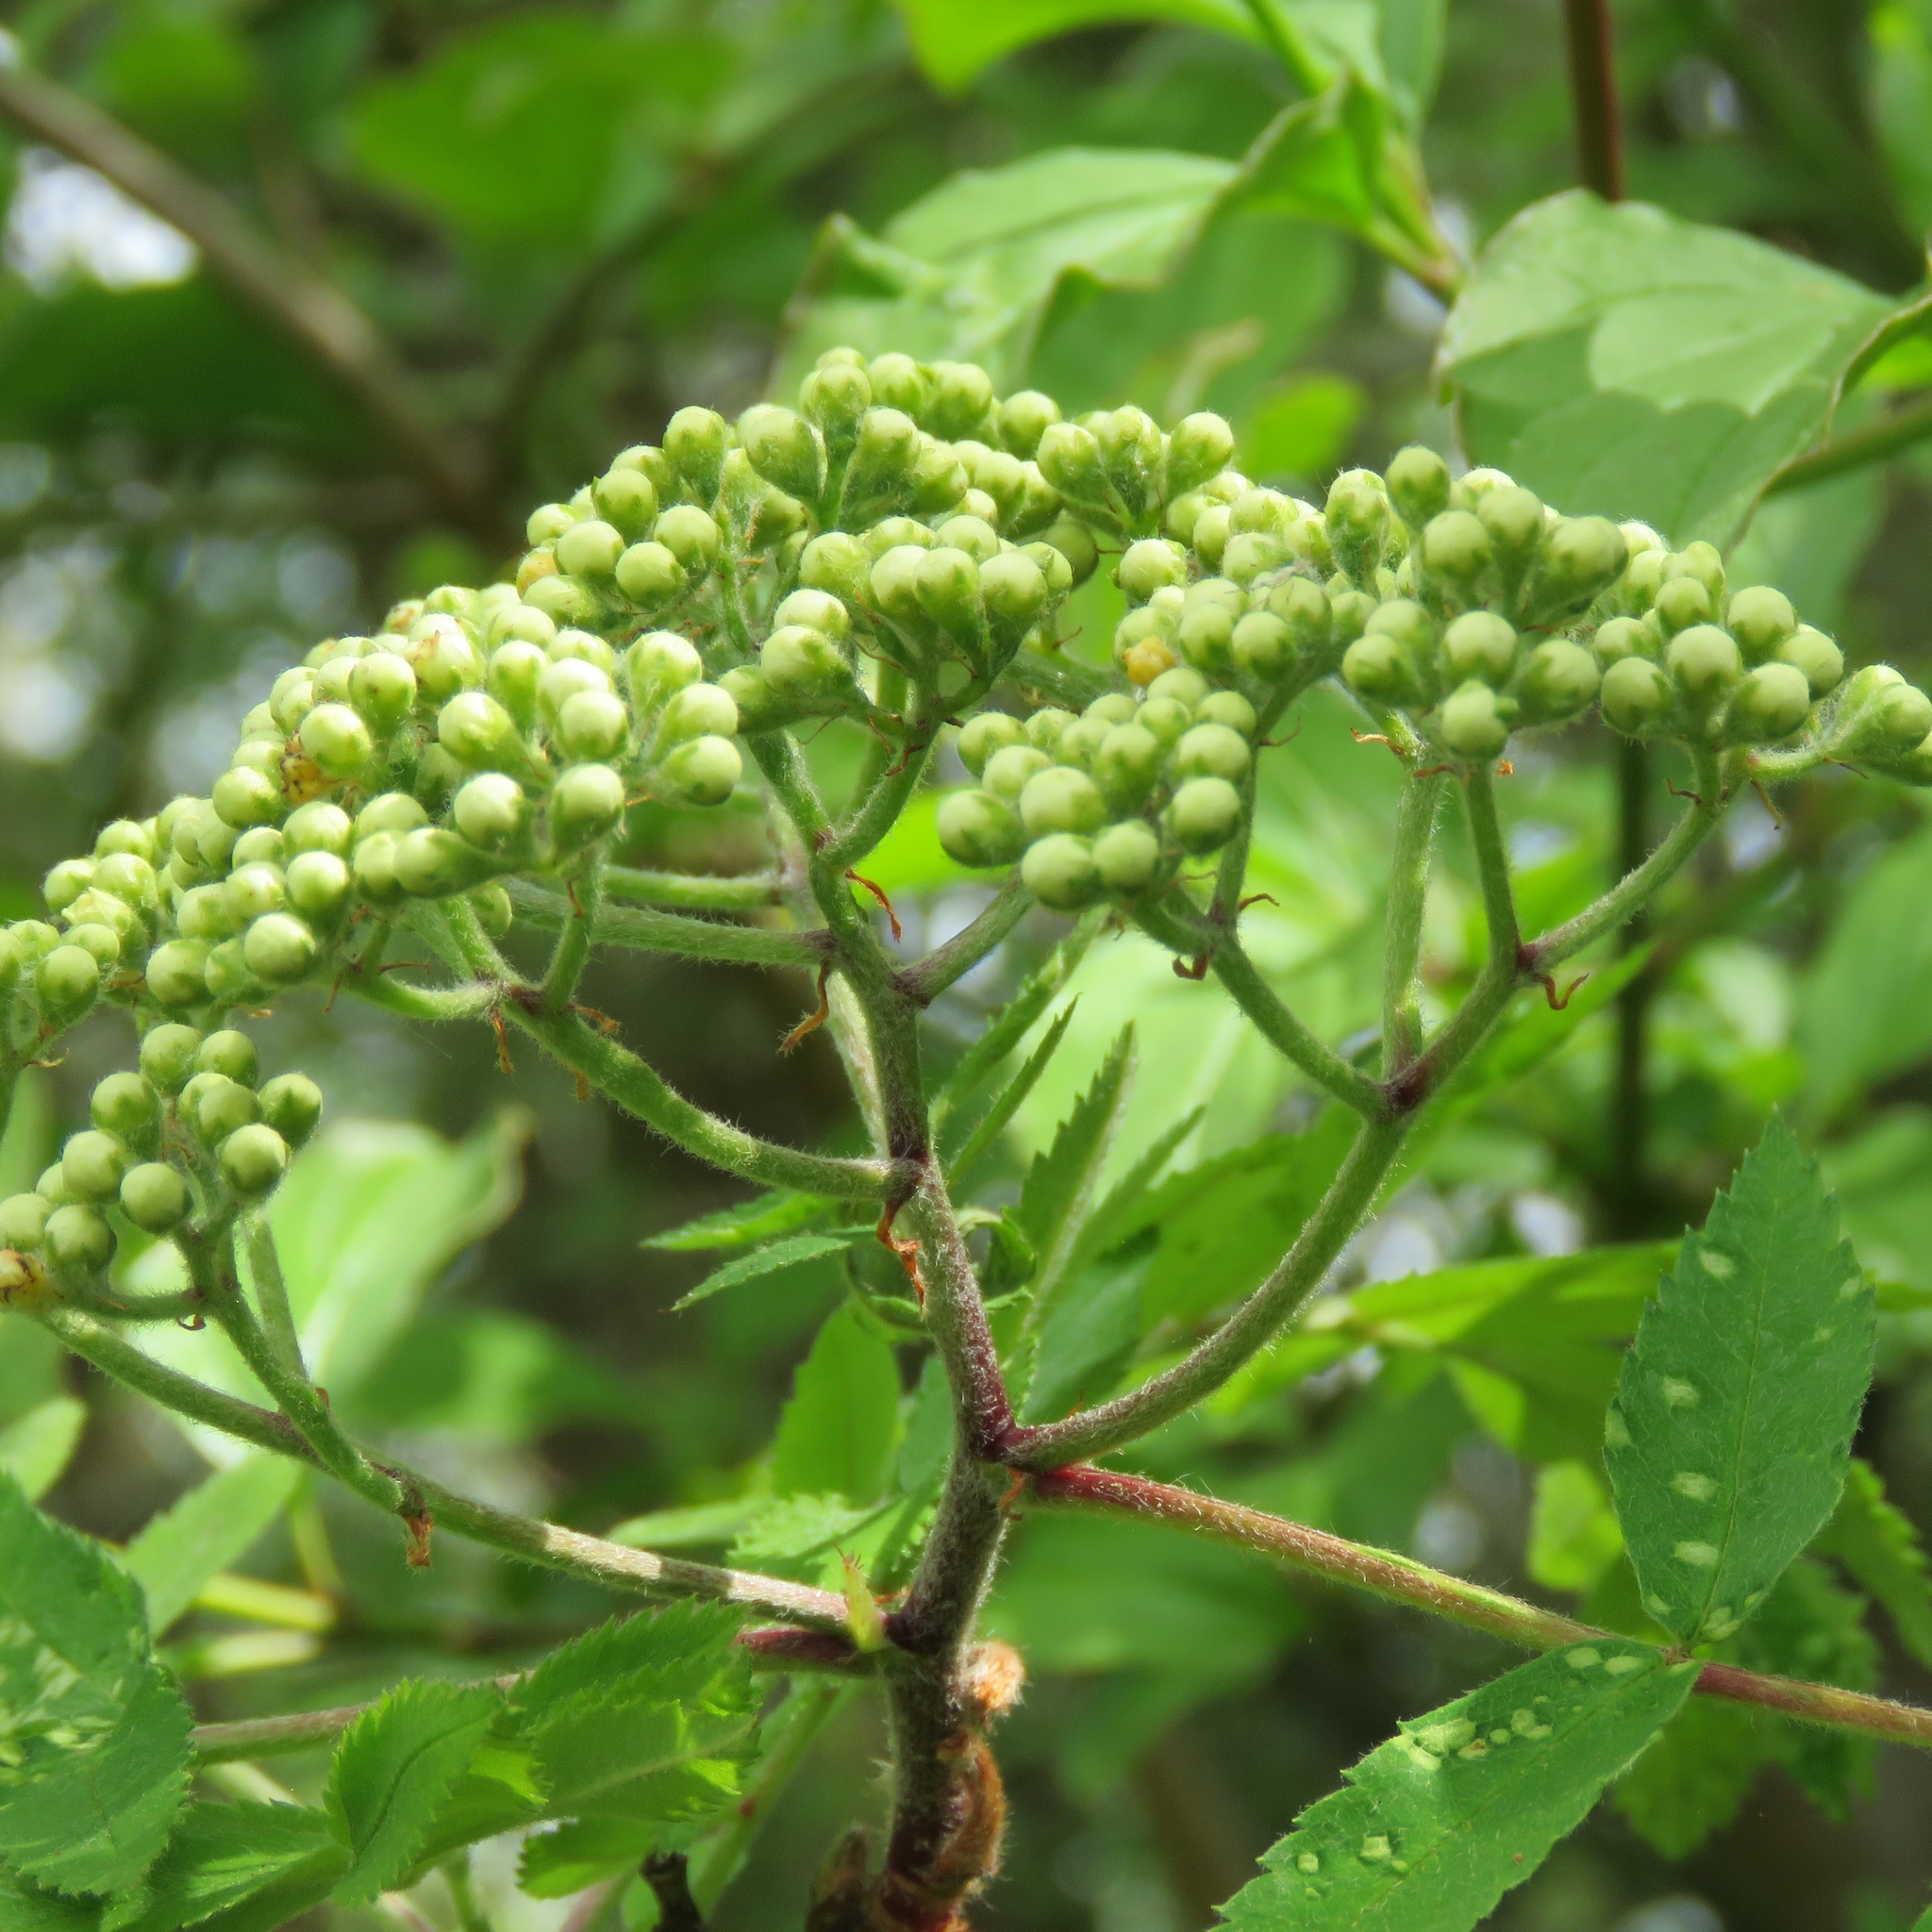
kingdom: Plantae
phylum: Tracheophyta
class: Magnoliopsida
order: Rosales
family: Rosaceae
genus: Sorbus
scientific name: Sorbus aucuparia
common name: Rowan
